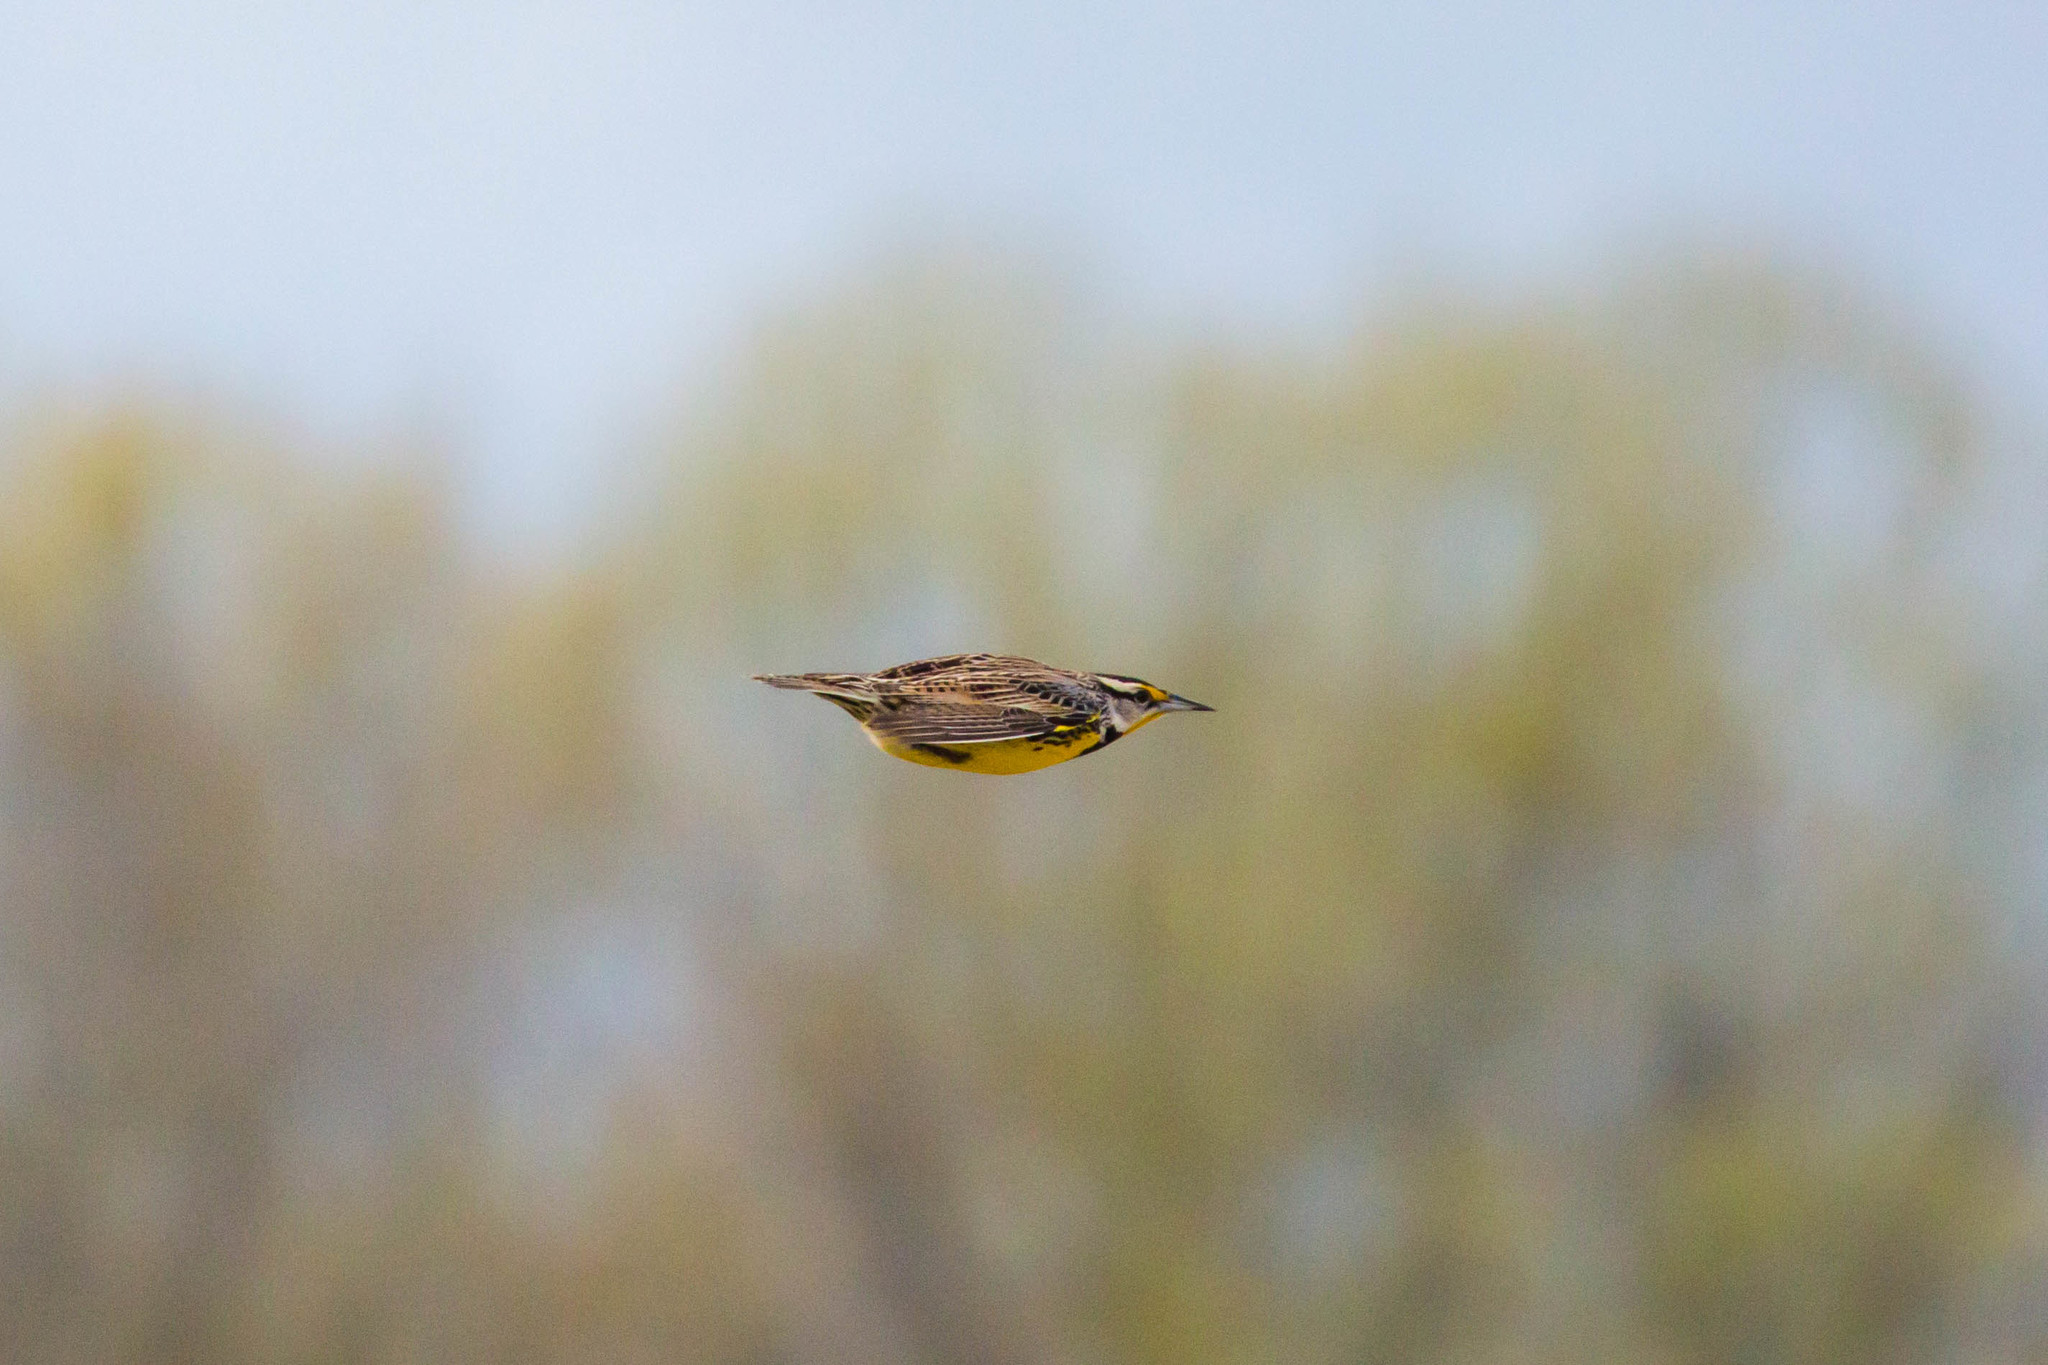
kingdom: Animalia
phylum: Chordata
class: Aves
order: Passeriformes
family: Icteridae
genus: Sturnella
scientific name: Sturnella magna
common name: Eastern meadowlark
